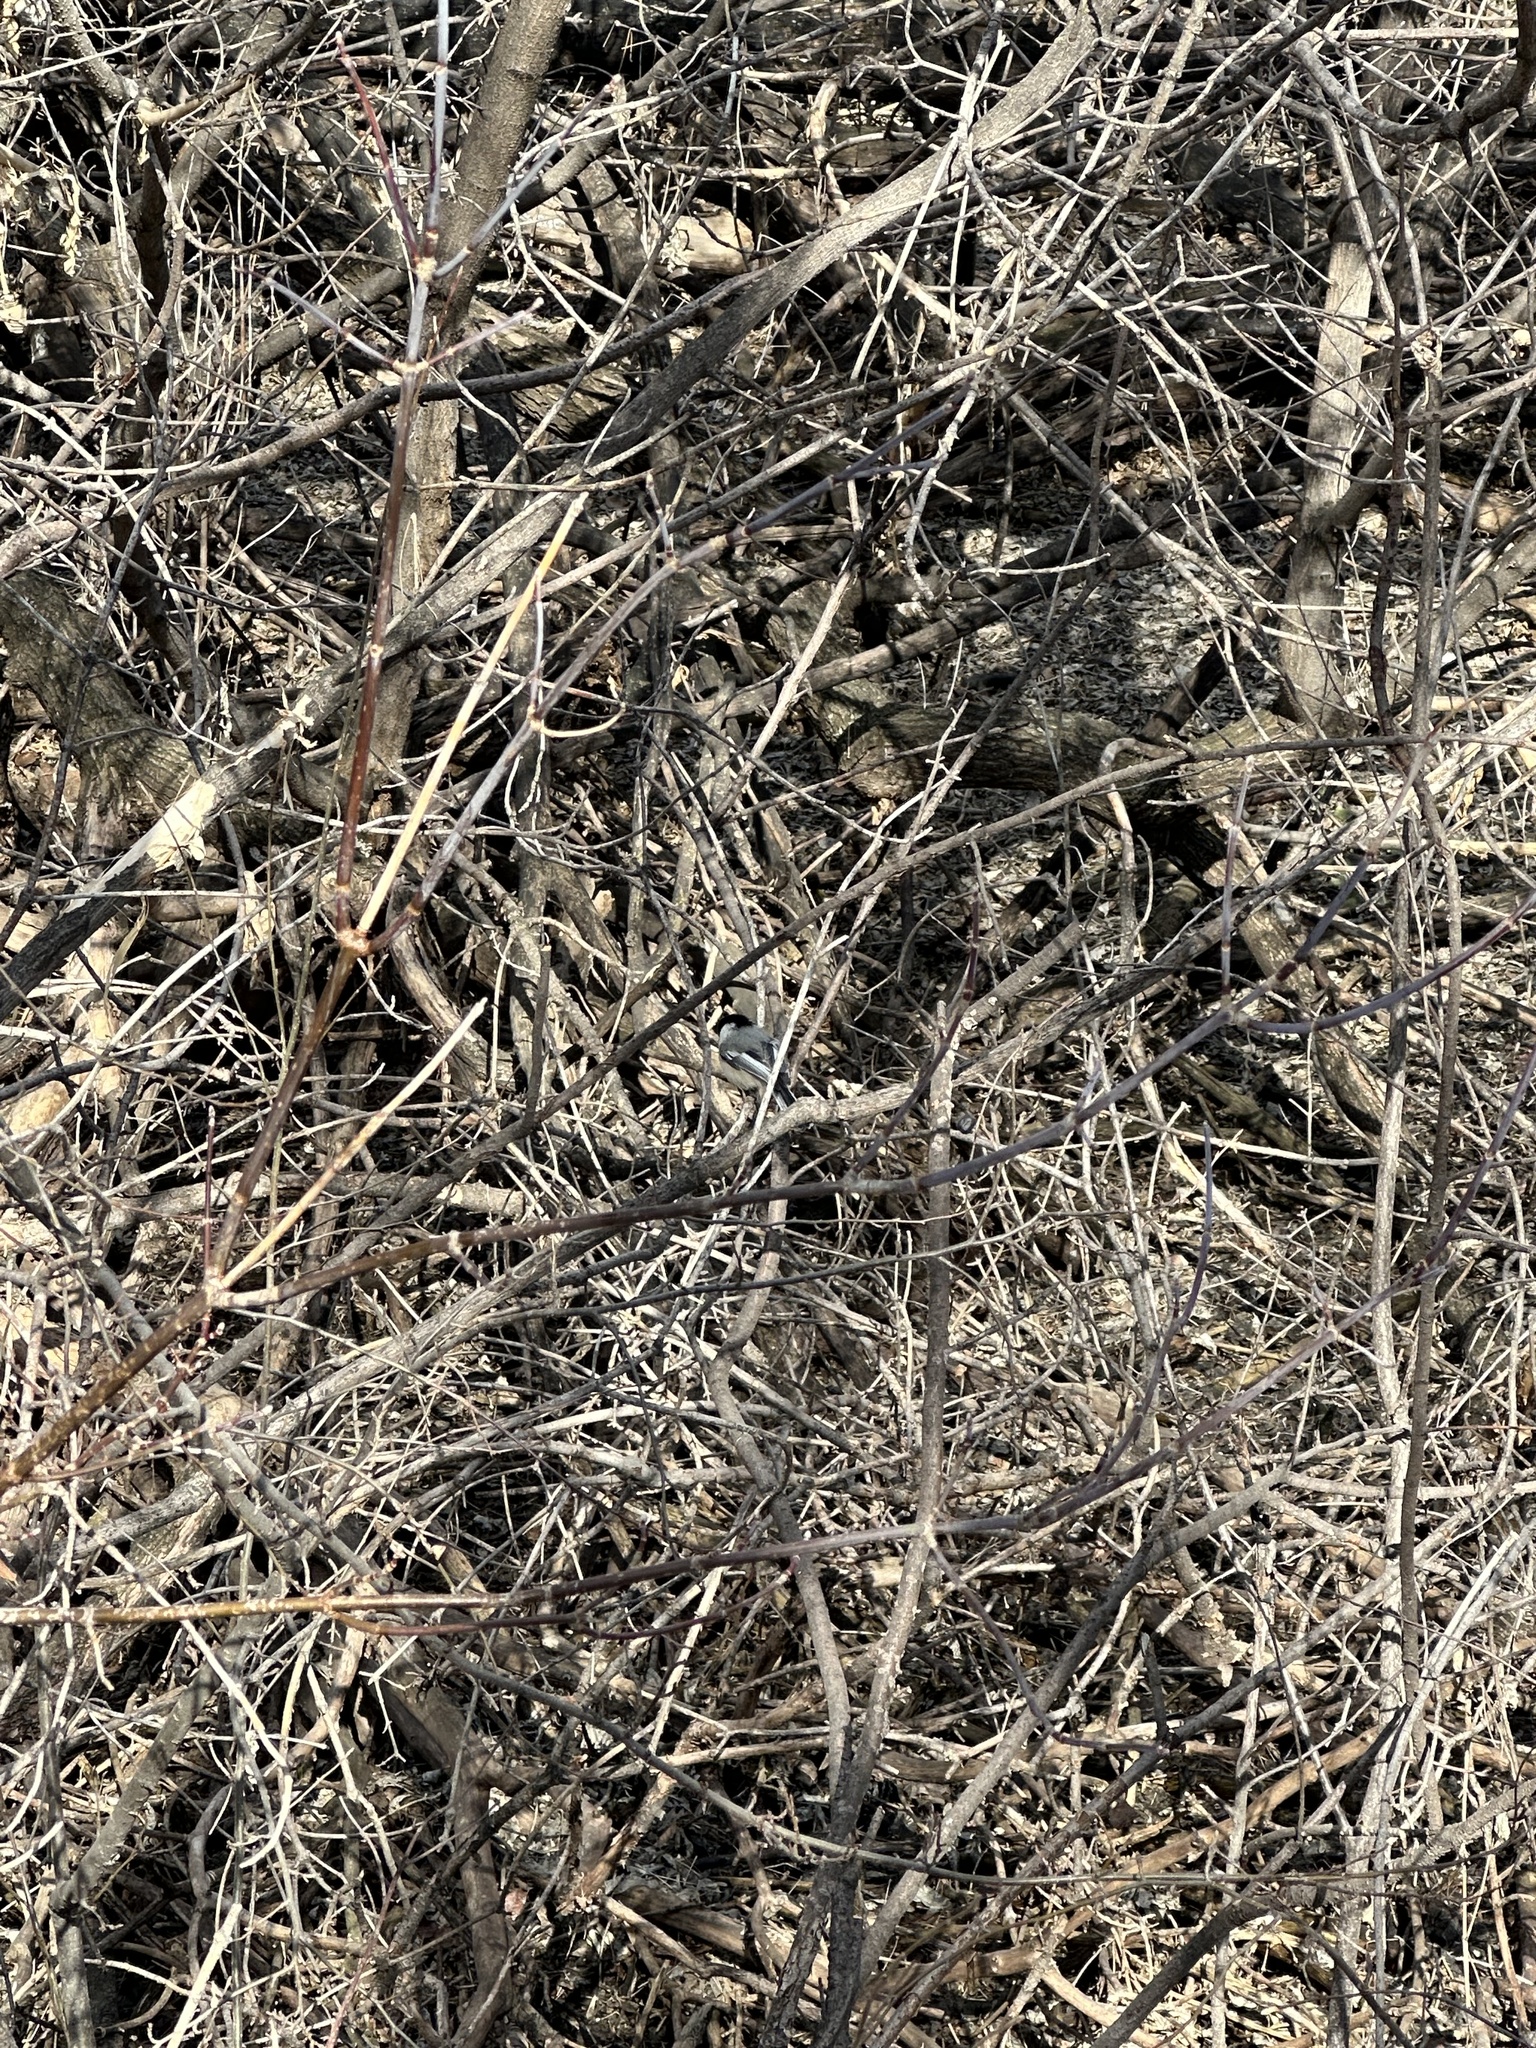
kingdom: Animalia
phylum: Chordata
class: Aves
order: Passeriformes
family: Paridae
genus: Poecile
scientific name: Poecile atricapillus
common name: Black-capped chickadee
